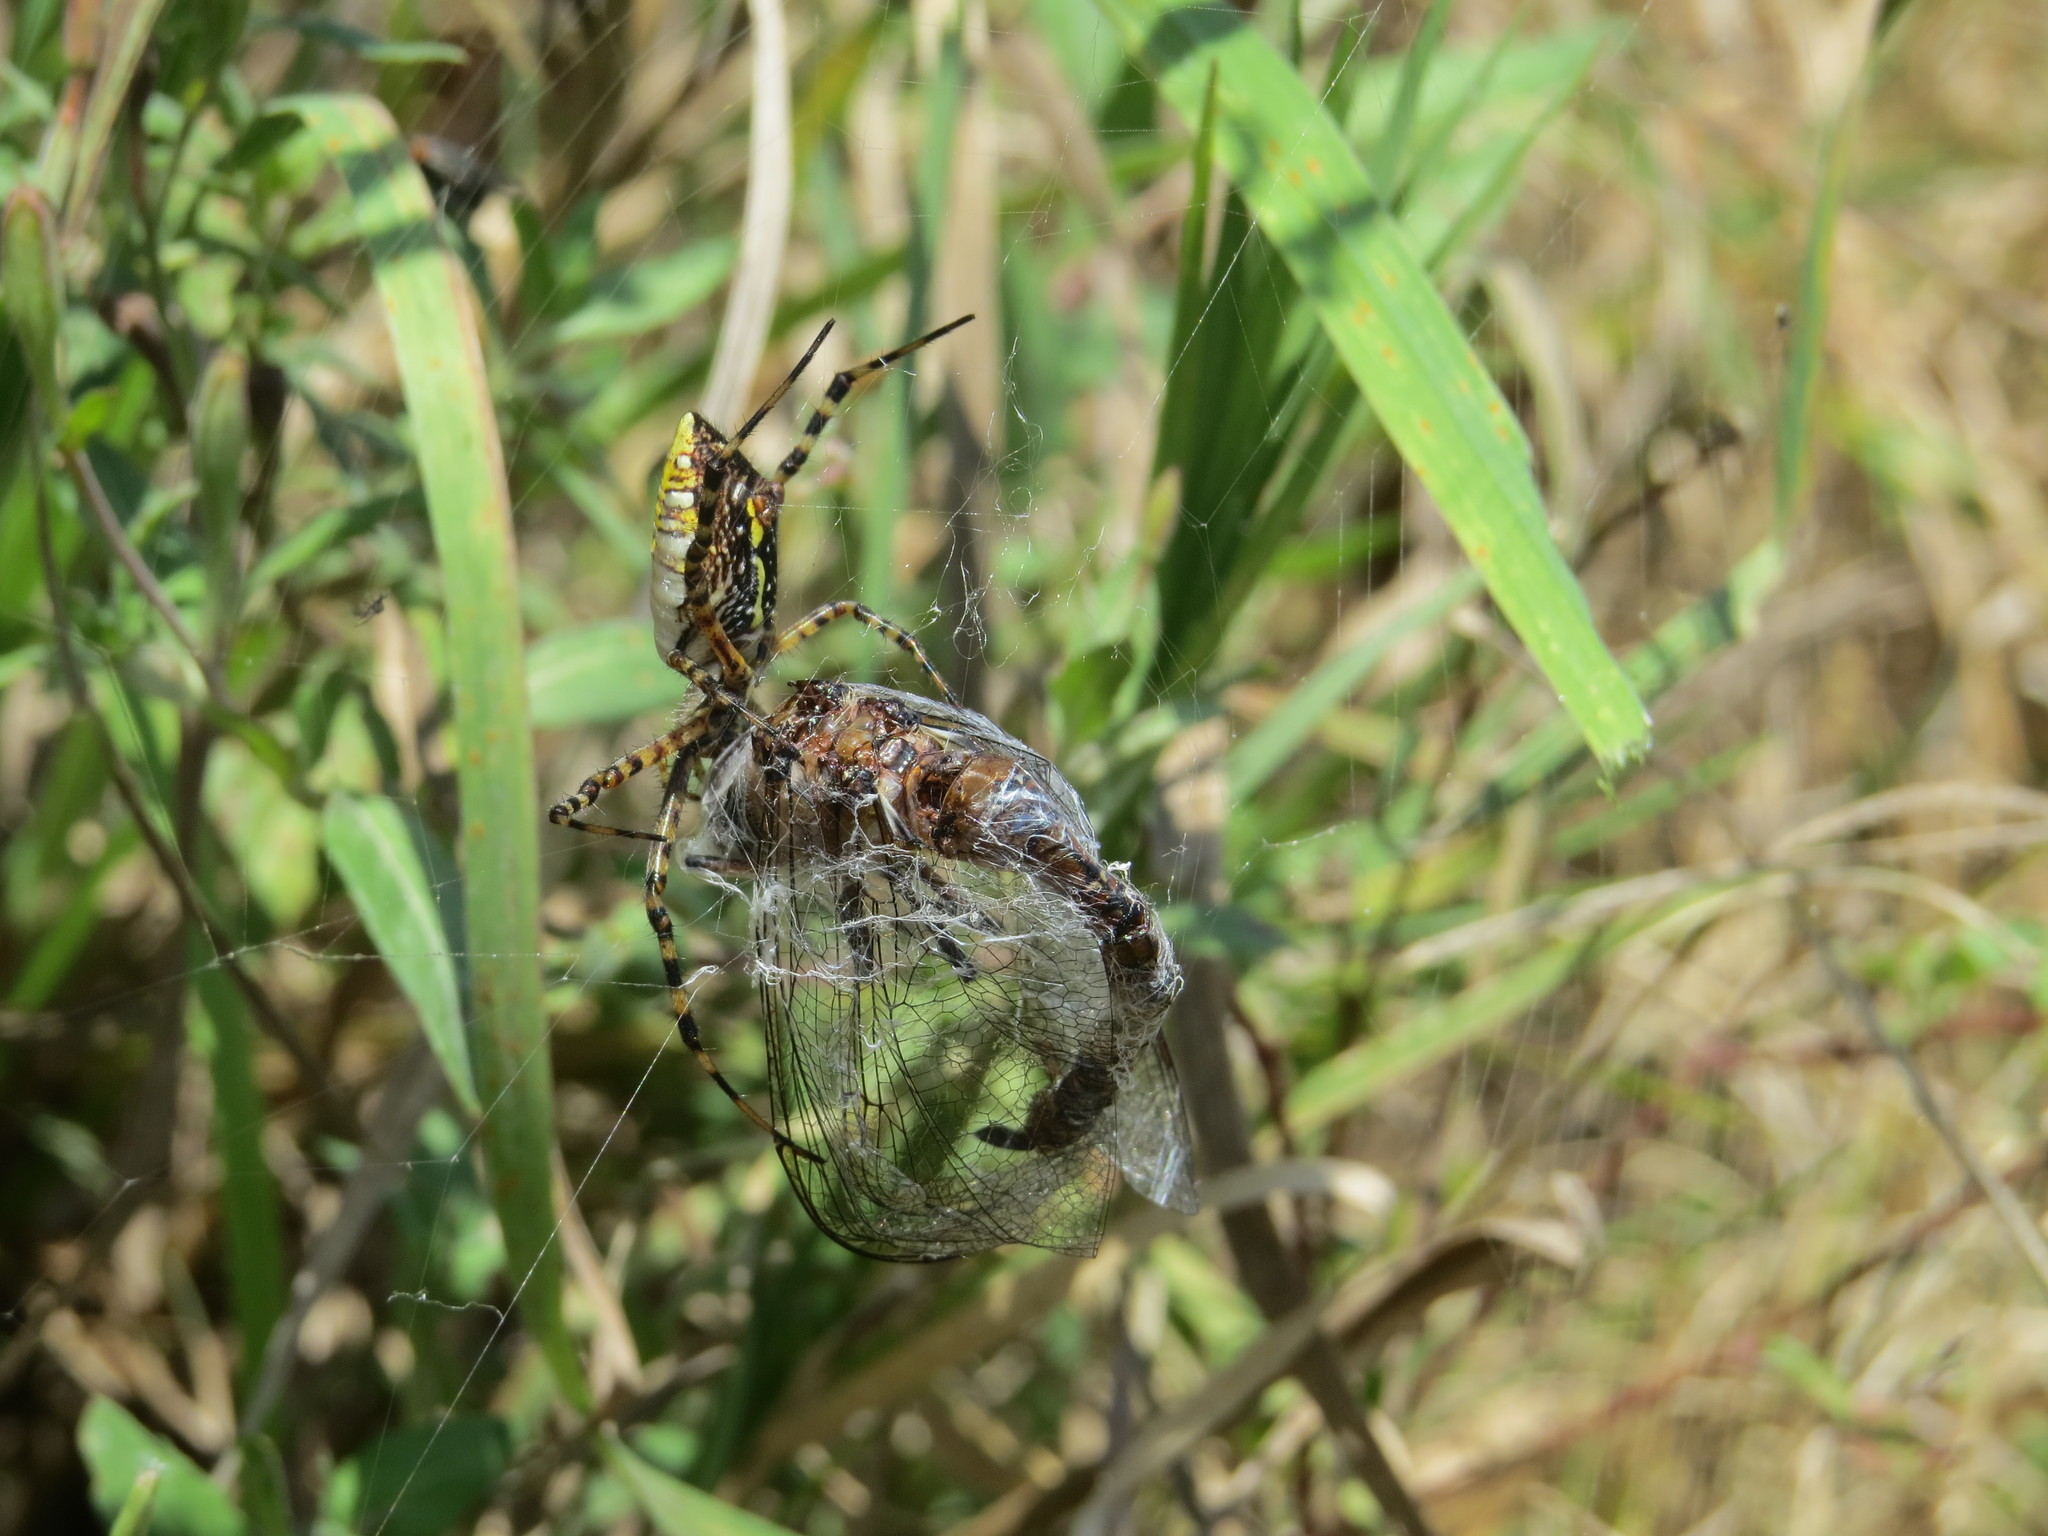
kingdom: Animalia
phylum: Arthropoda
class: Arachnida
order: Araneae
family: Araneidae
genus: Argiope
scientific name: Argiope trifasciata
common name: Banded garden spider
